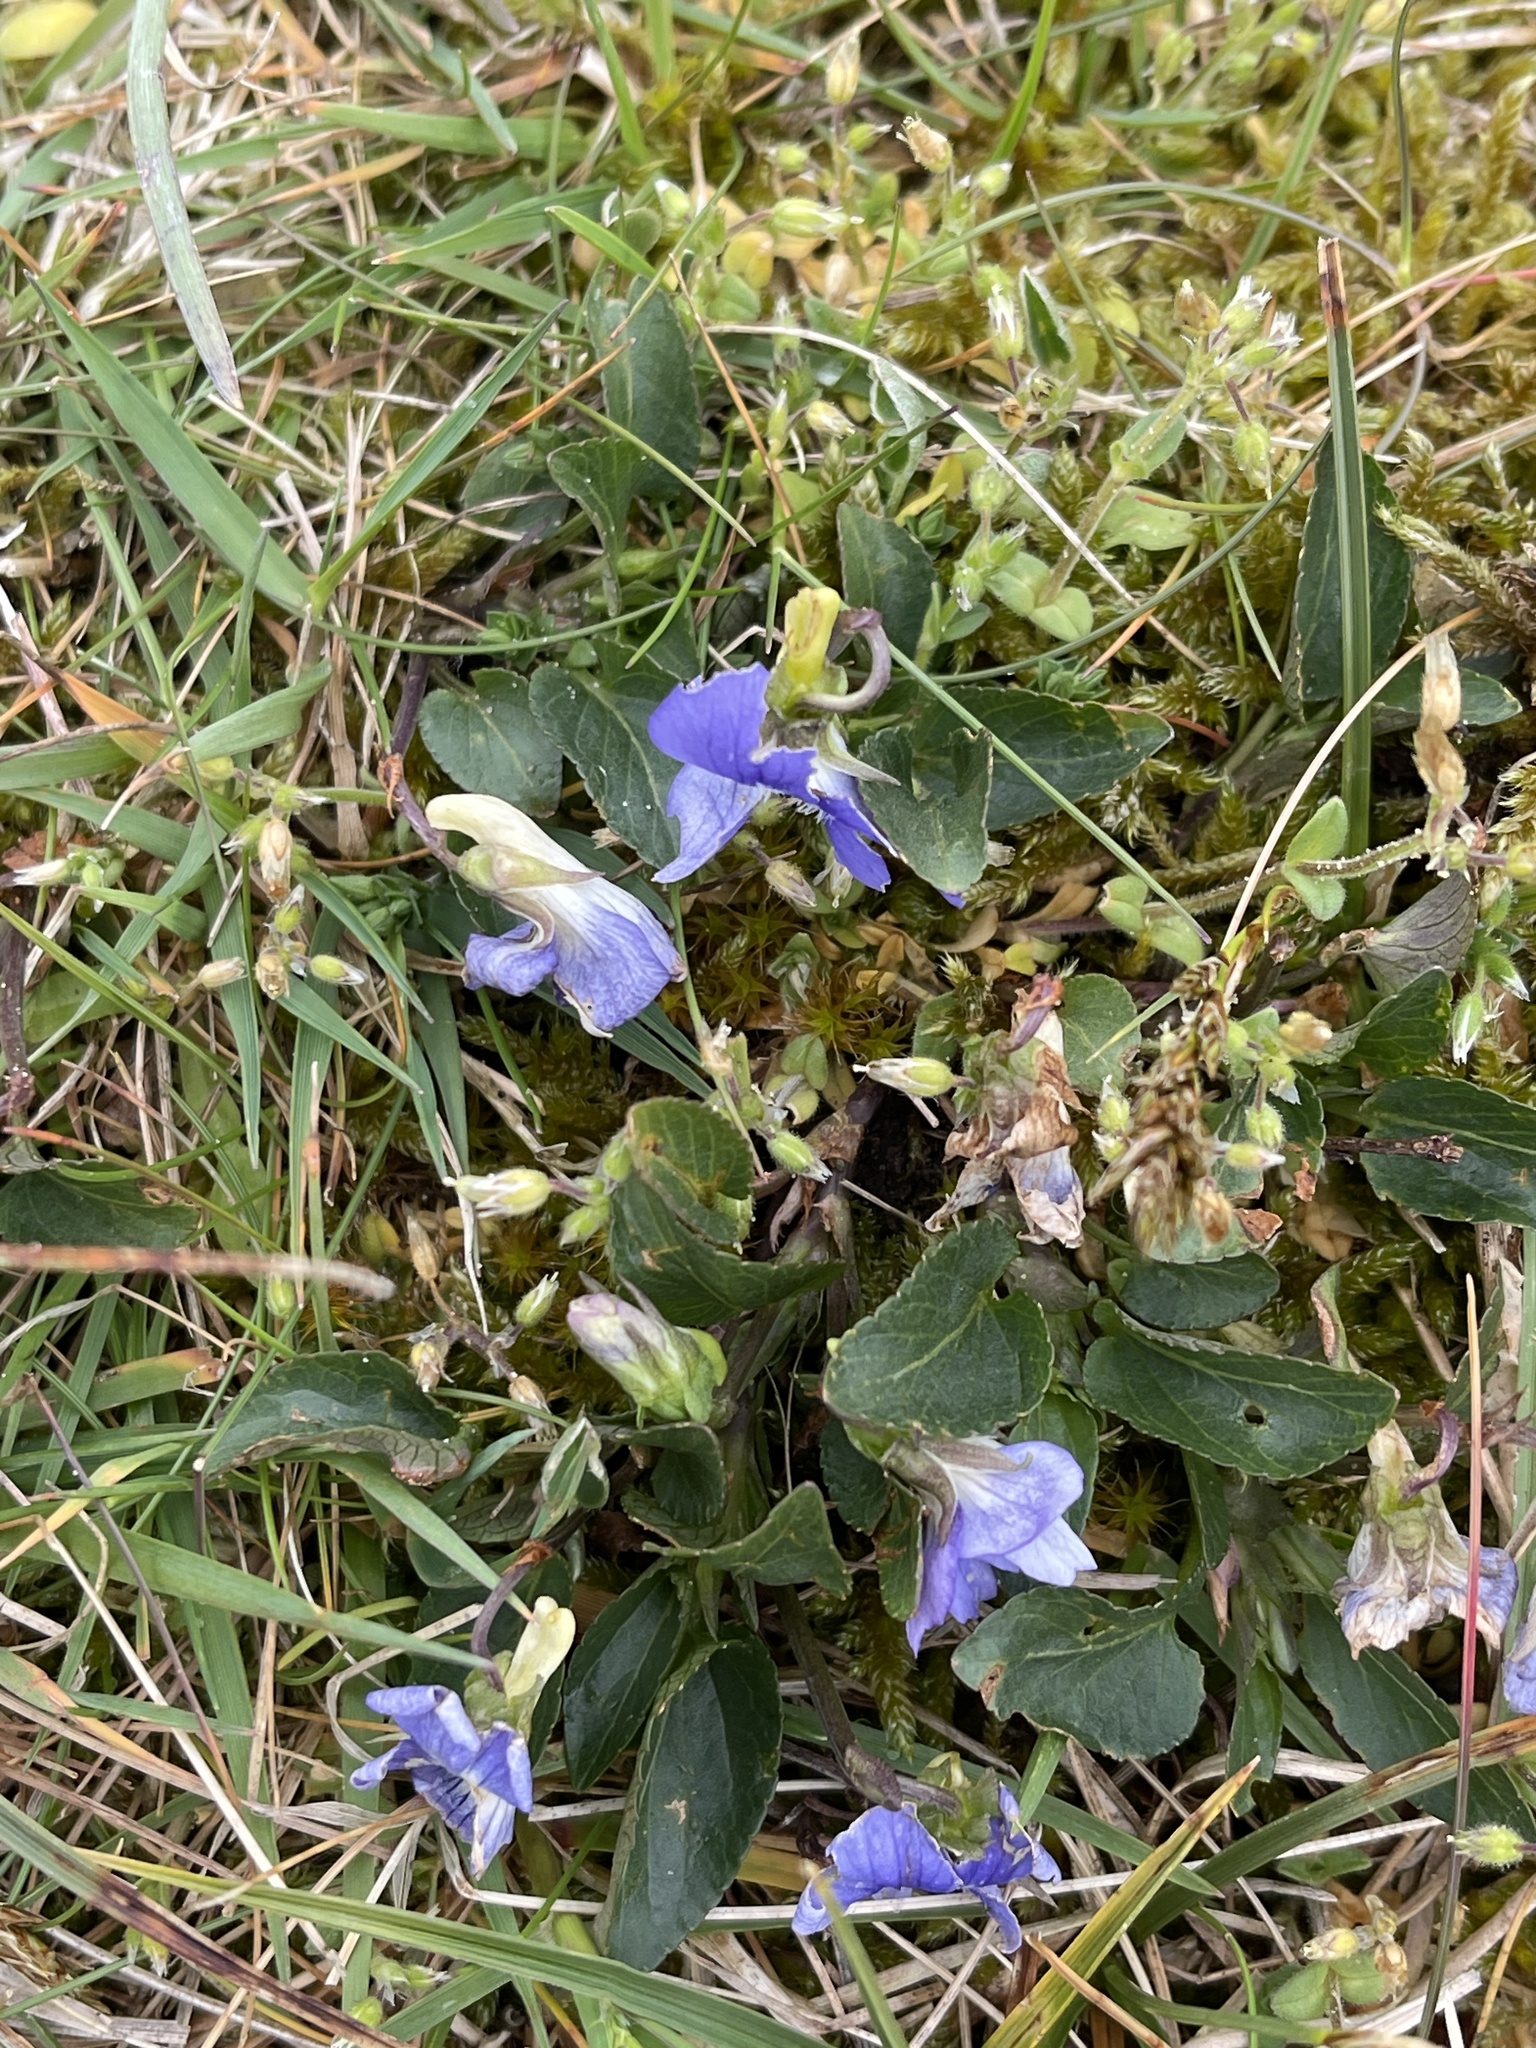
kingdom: Plantae
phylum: Tracheophyta
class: Magnoliopsida
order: Malpighiales
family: Violaceae
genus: Viola
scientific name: Viola canina
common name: Heath dog-violet
